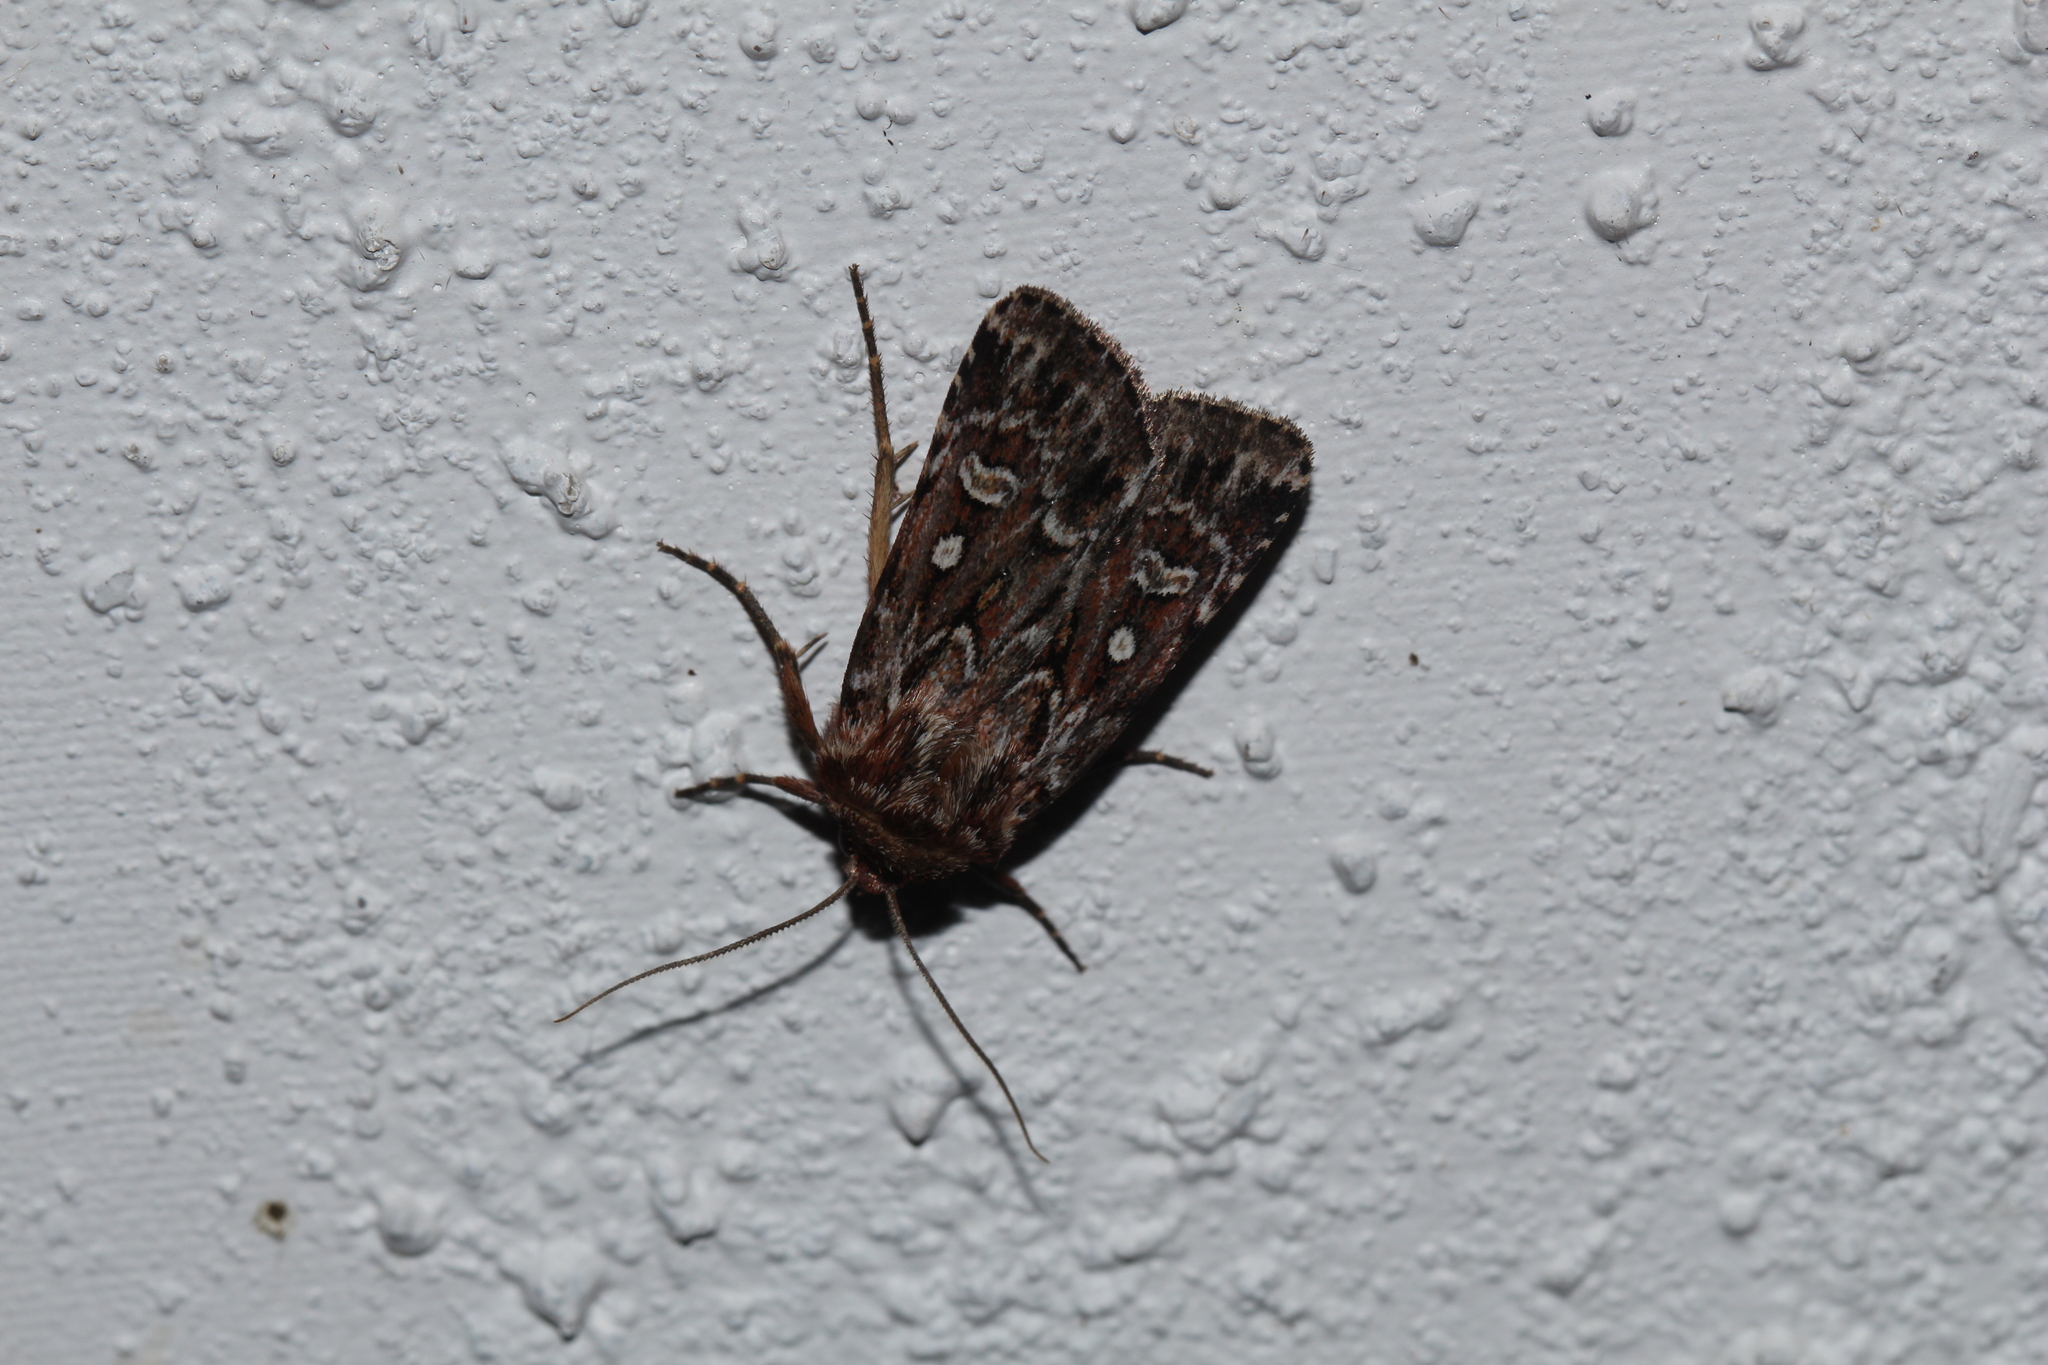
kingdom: Animalia
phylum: Arthropoda
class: Insecta
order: Lepidoptera
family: Noctuidae
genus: Lycophotia
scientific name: Lycophotia porphyrea
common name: True lover's knot
